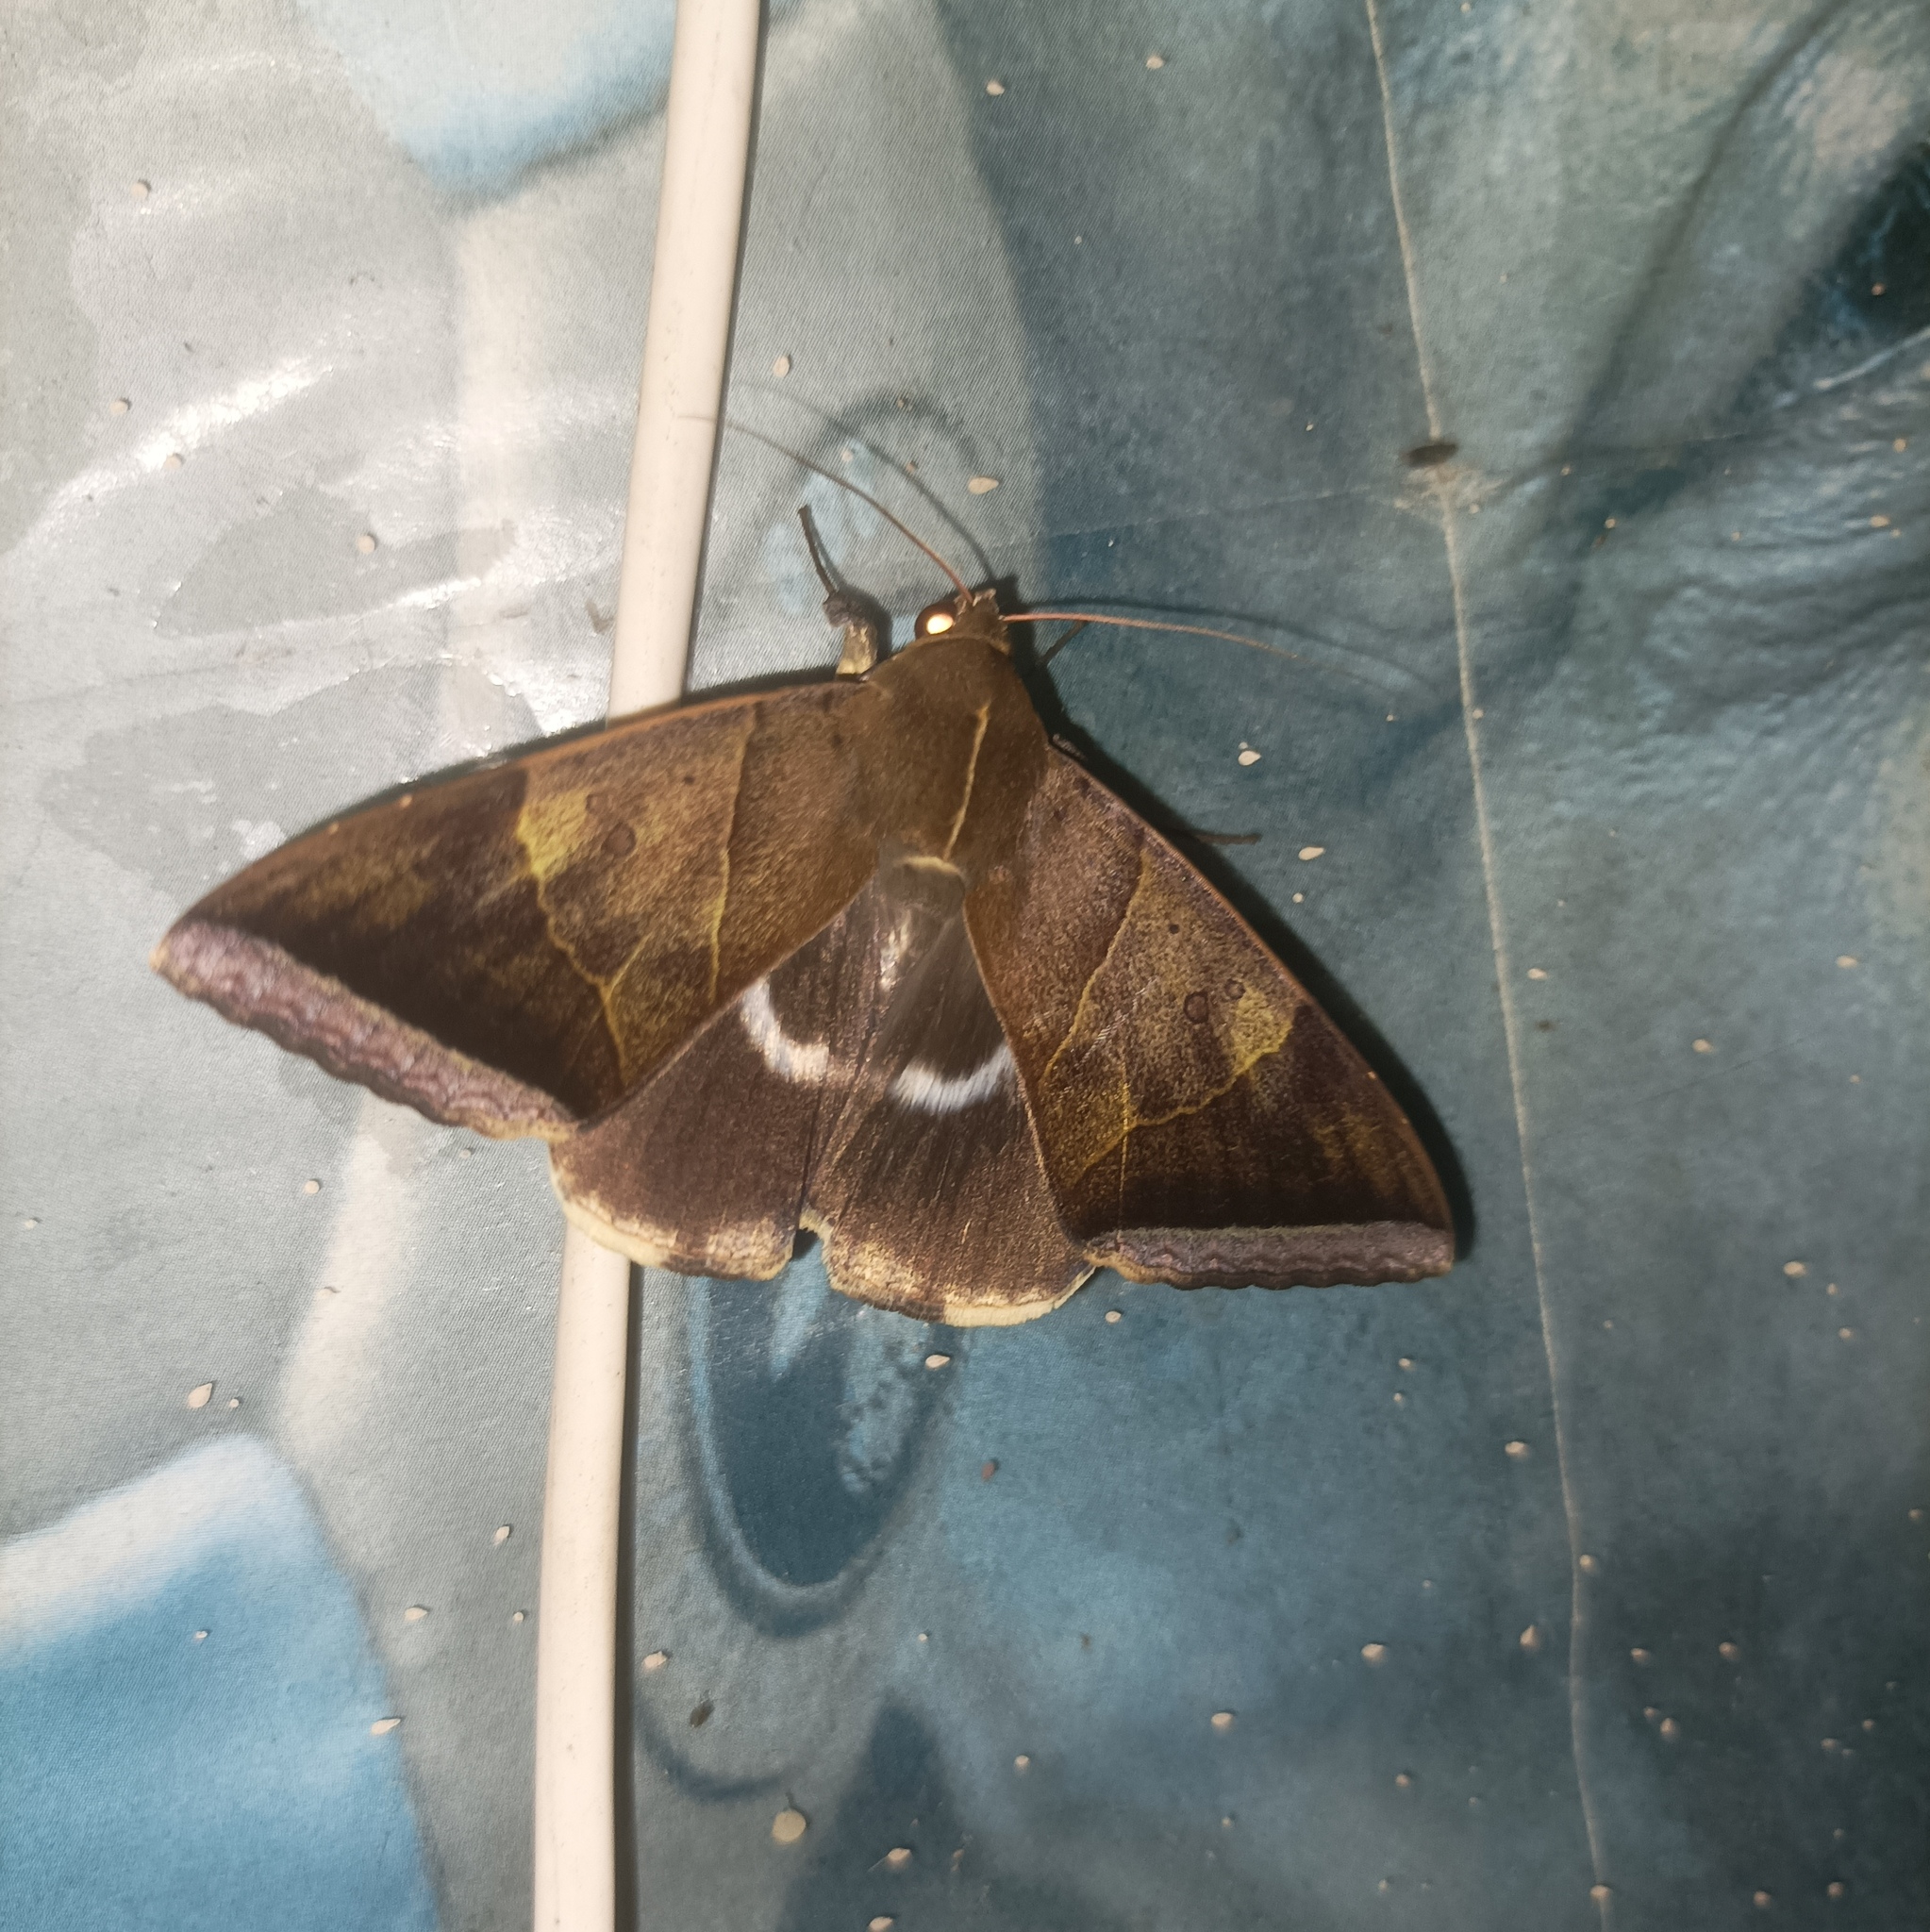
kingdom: Animalia
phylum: Arthropoda
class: Insecta
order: Lepidoptera
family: Erebidae
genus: Artena
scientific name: Artena dotata
